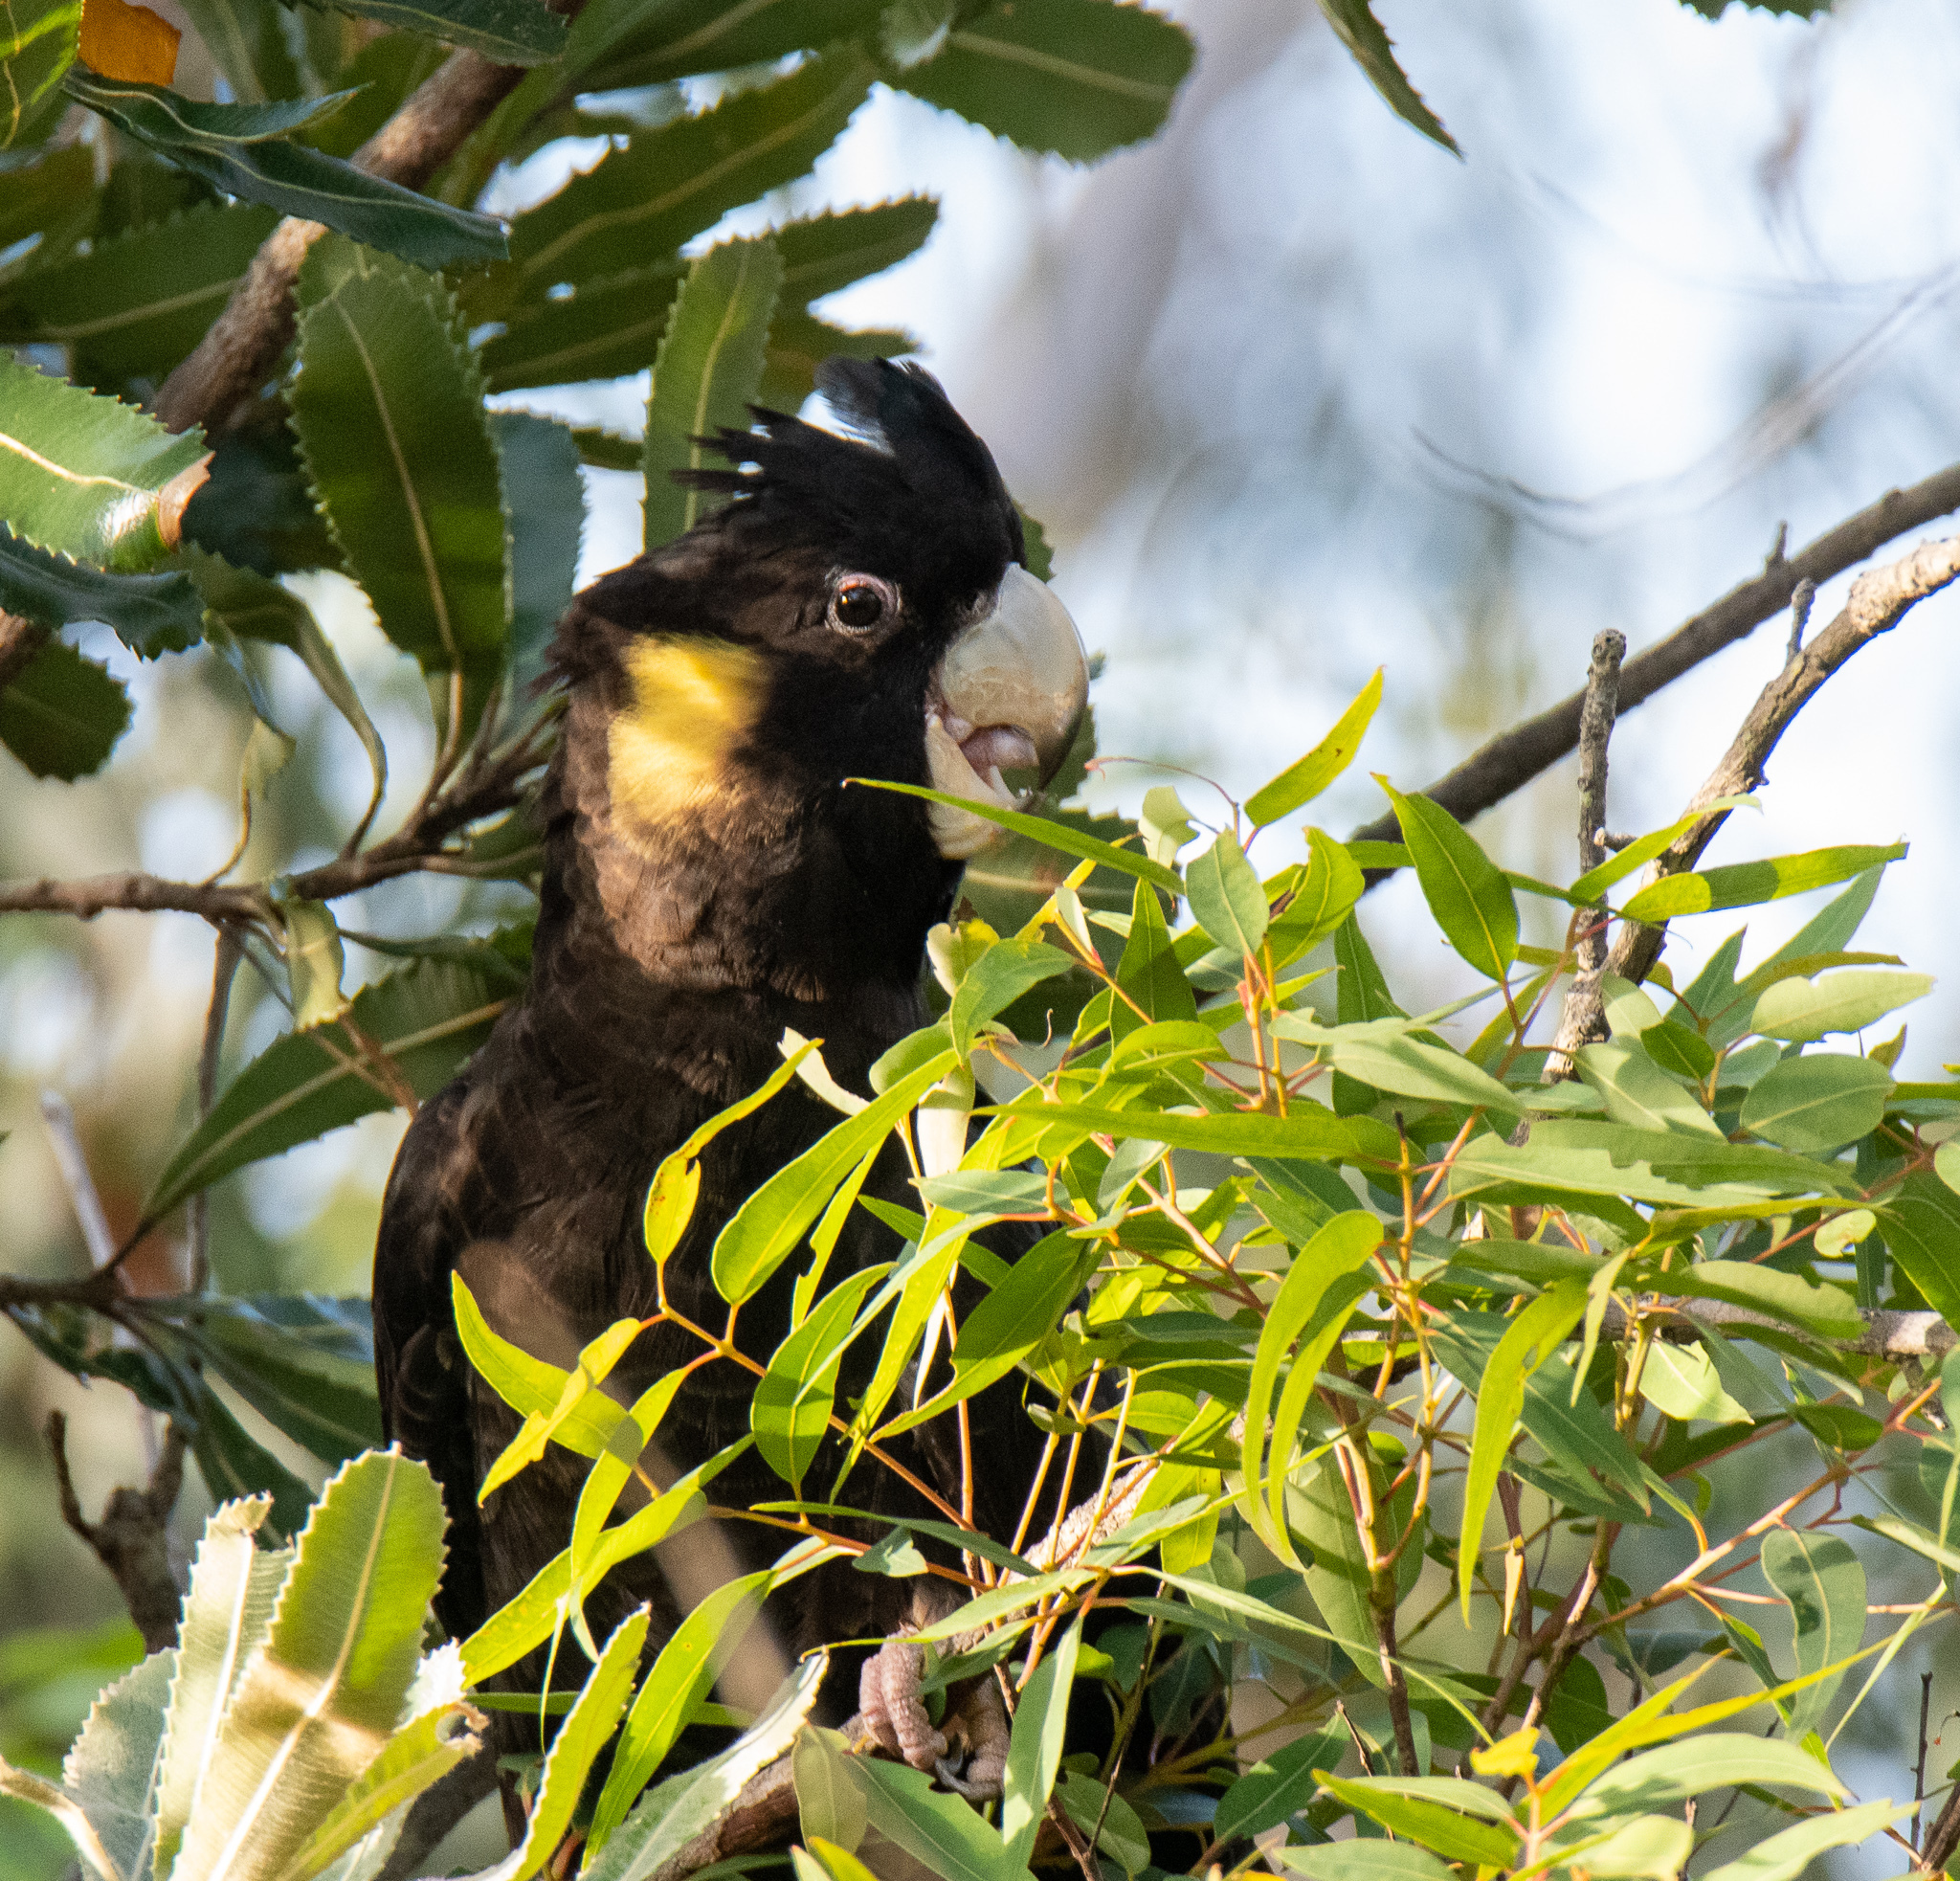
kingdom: Animalia
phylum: Chordata
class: Aves
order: Psittaciformes
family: Cacatuidae
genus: Zanda
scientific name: Zanda funerea
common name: Yellow-tailed black-cockatoo
